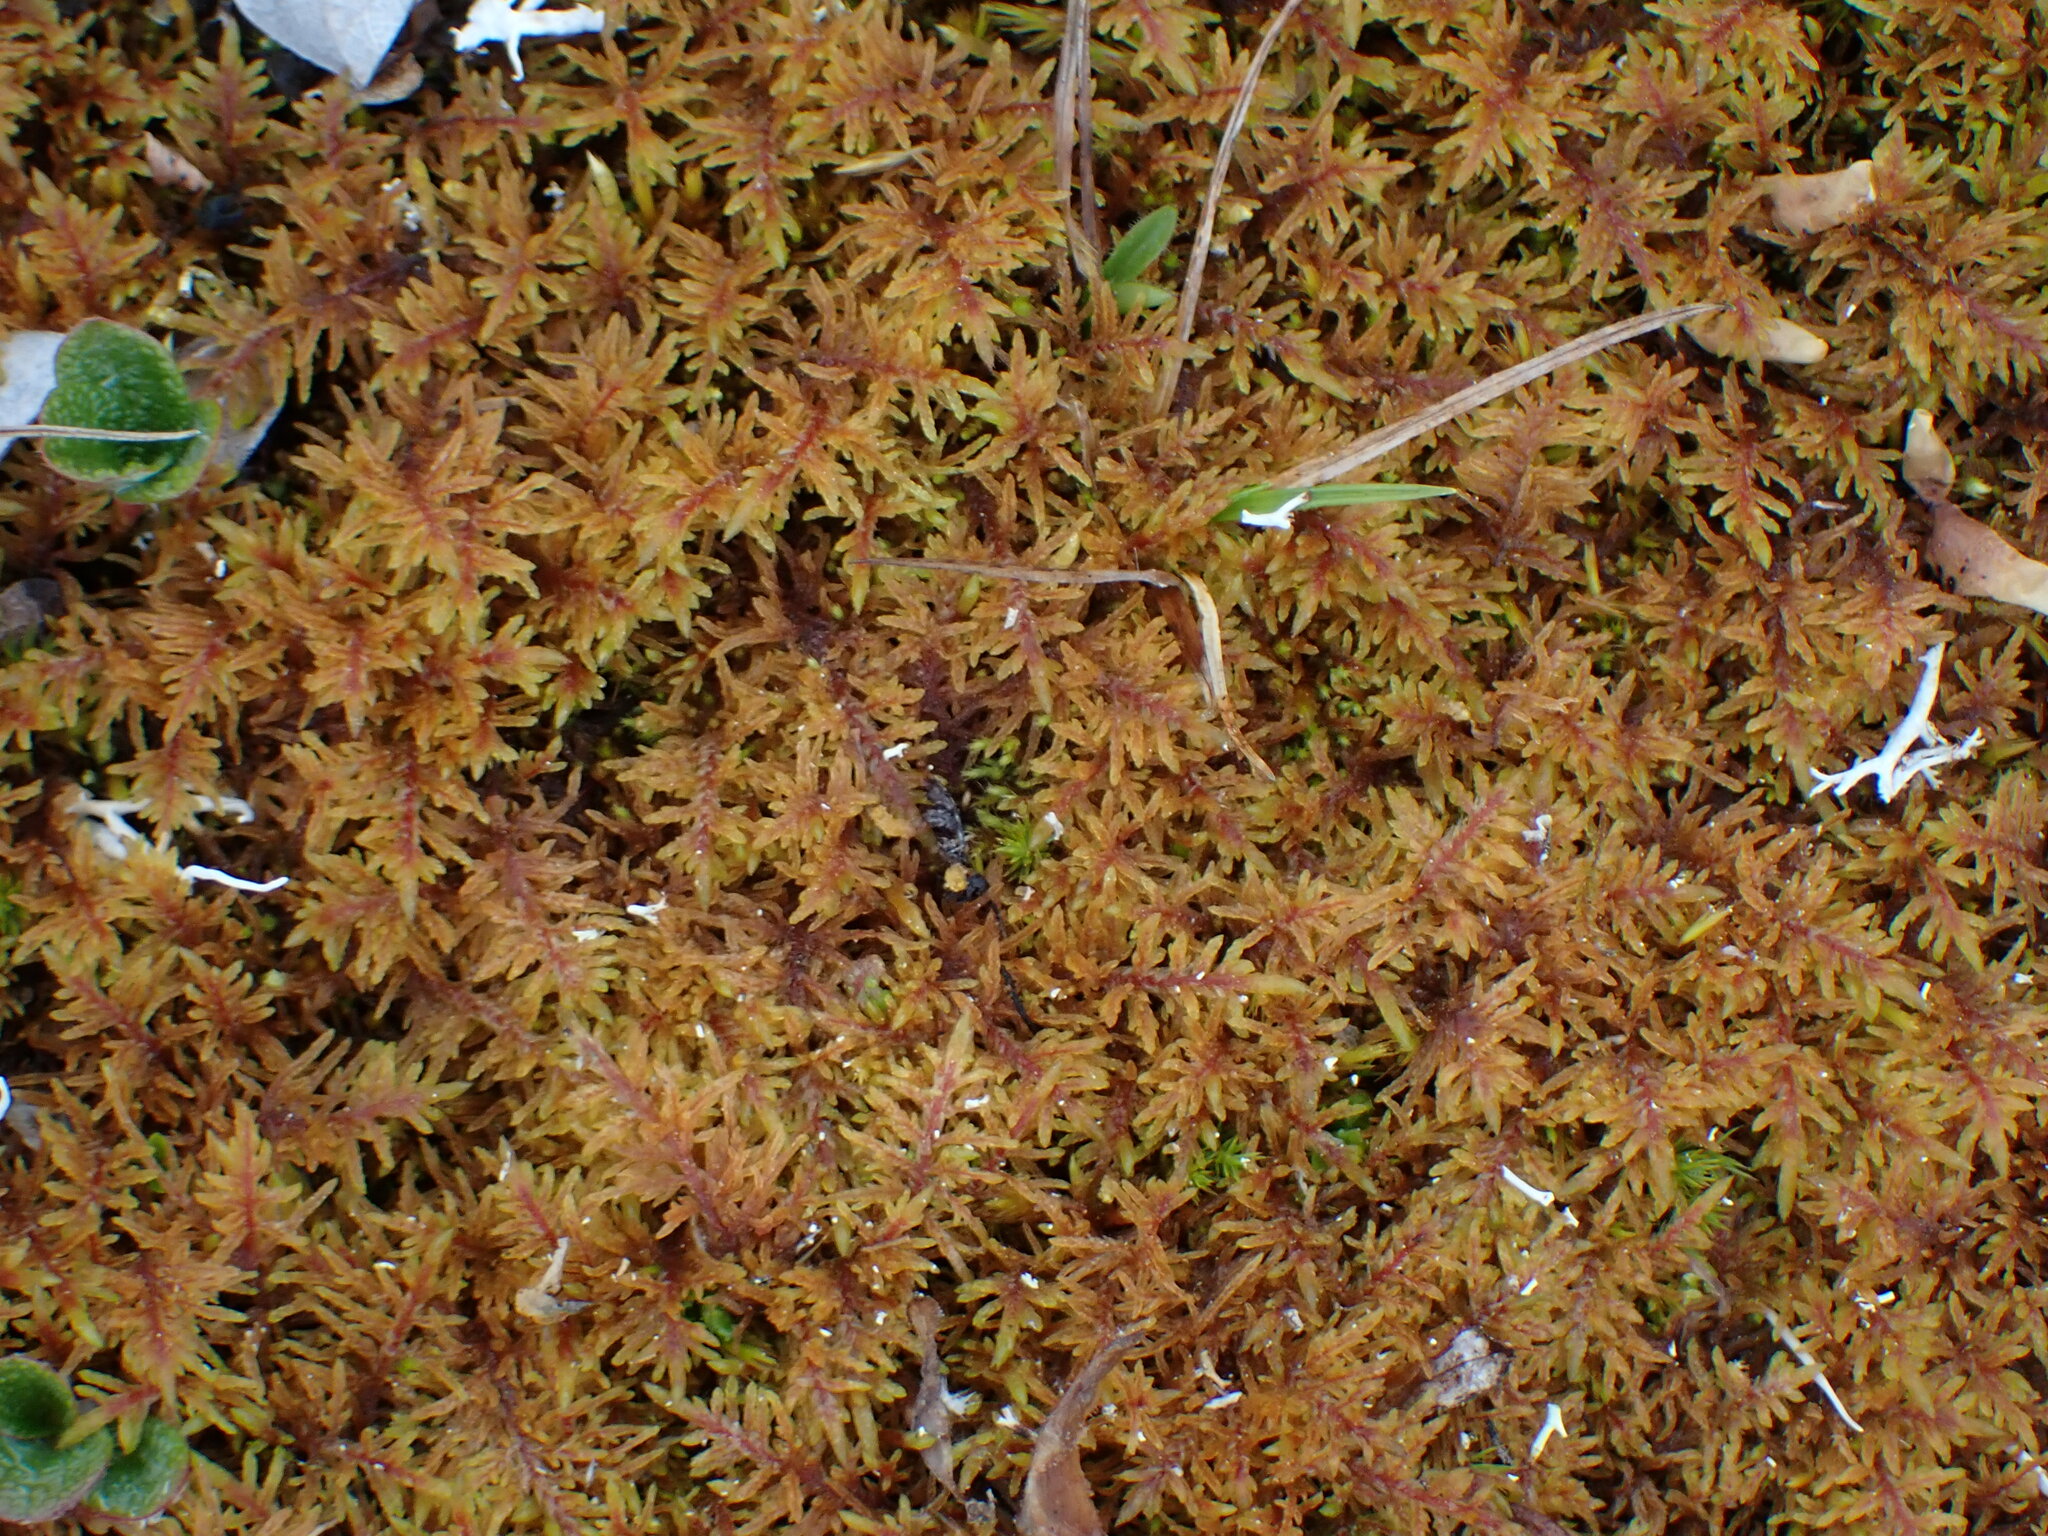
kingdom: Plantae
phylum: Bryophyta
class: Bryopsida
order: Hypnales
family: Hylocomiaceae
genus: Hylocomium
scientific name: Hylocomium splendens
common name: Stairstep moss
